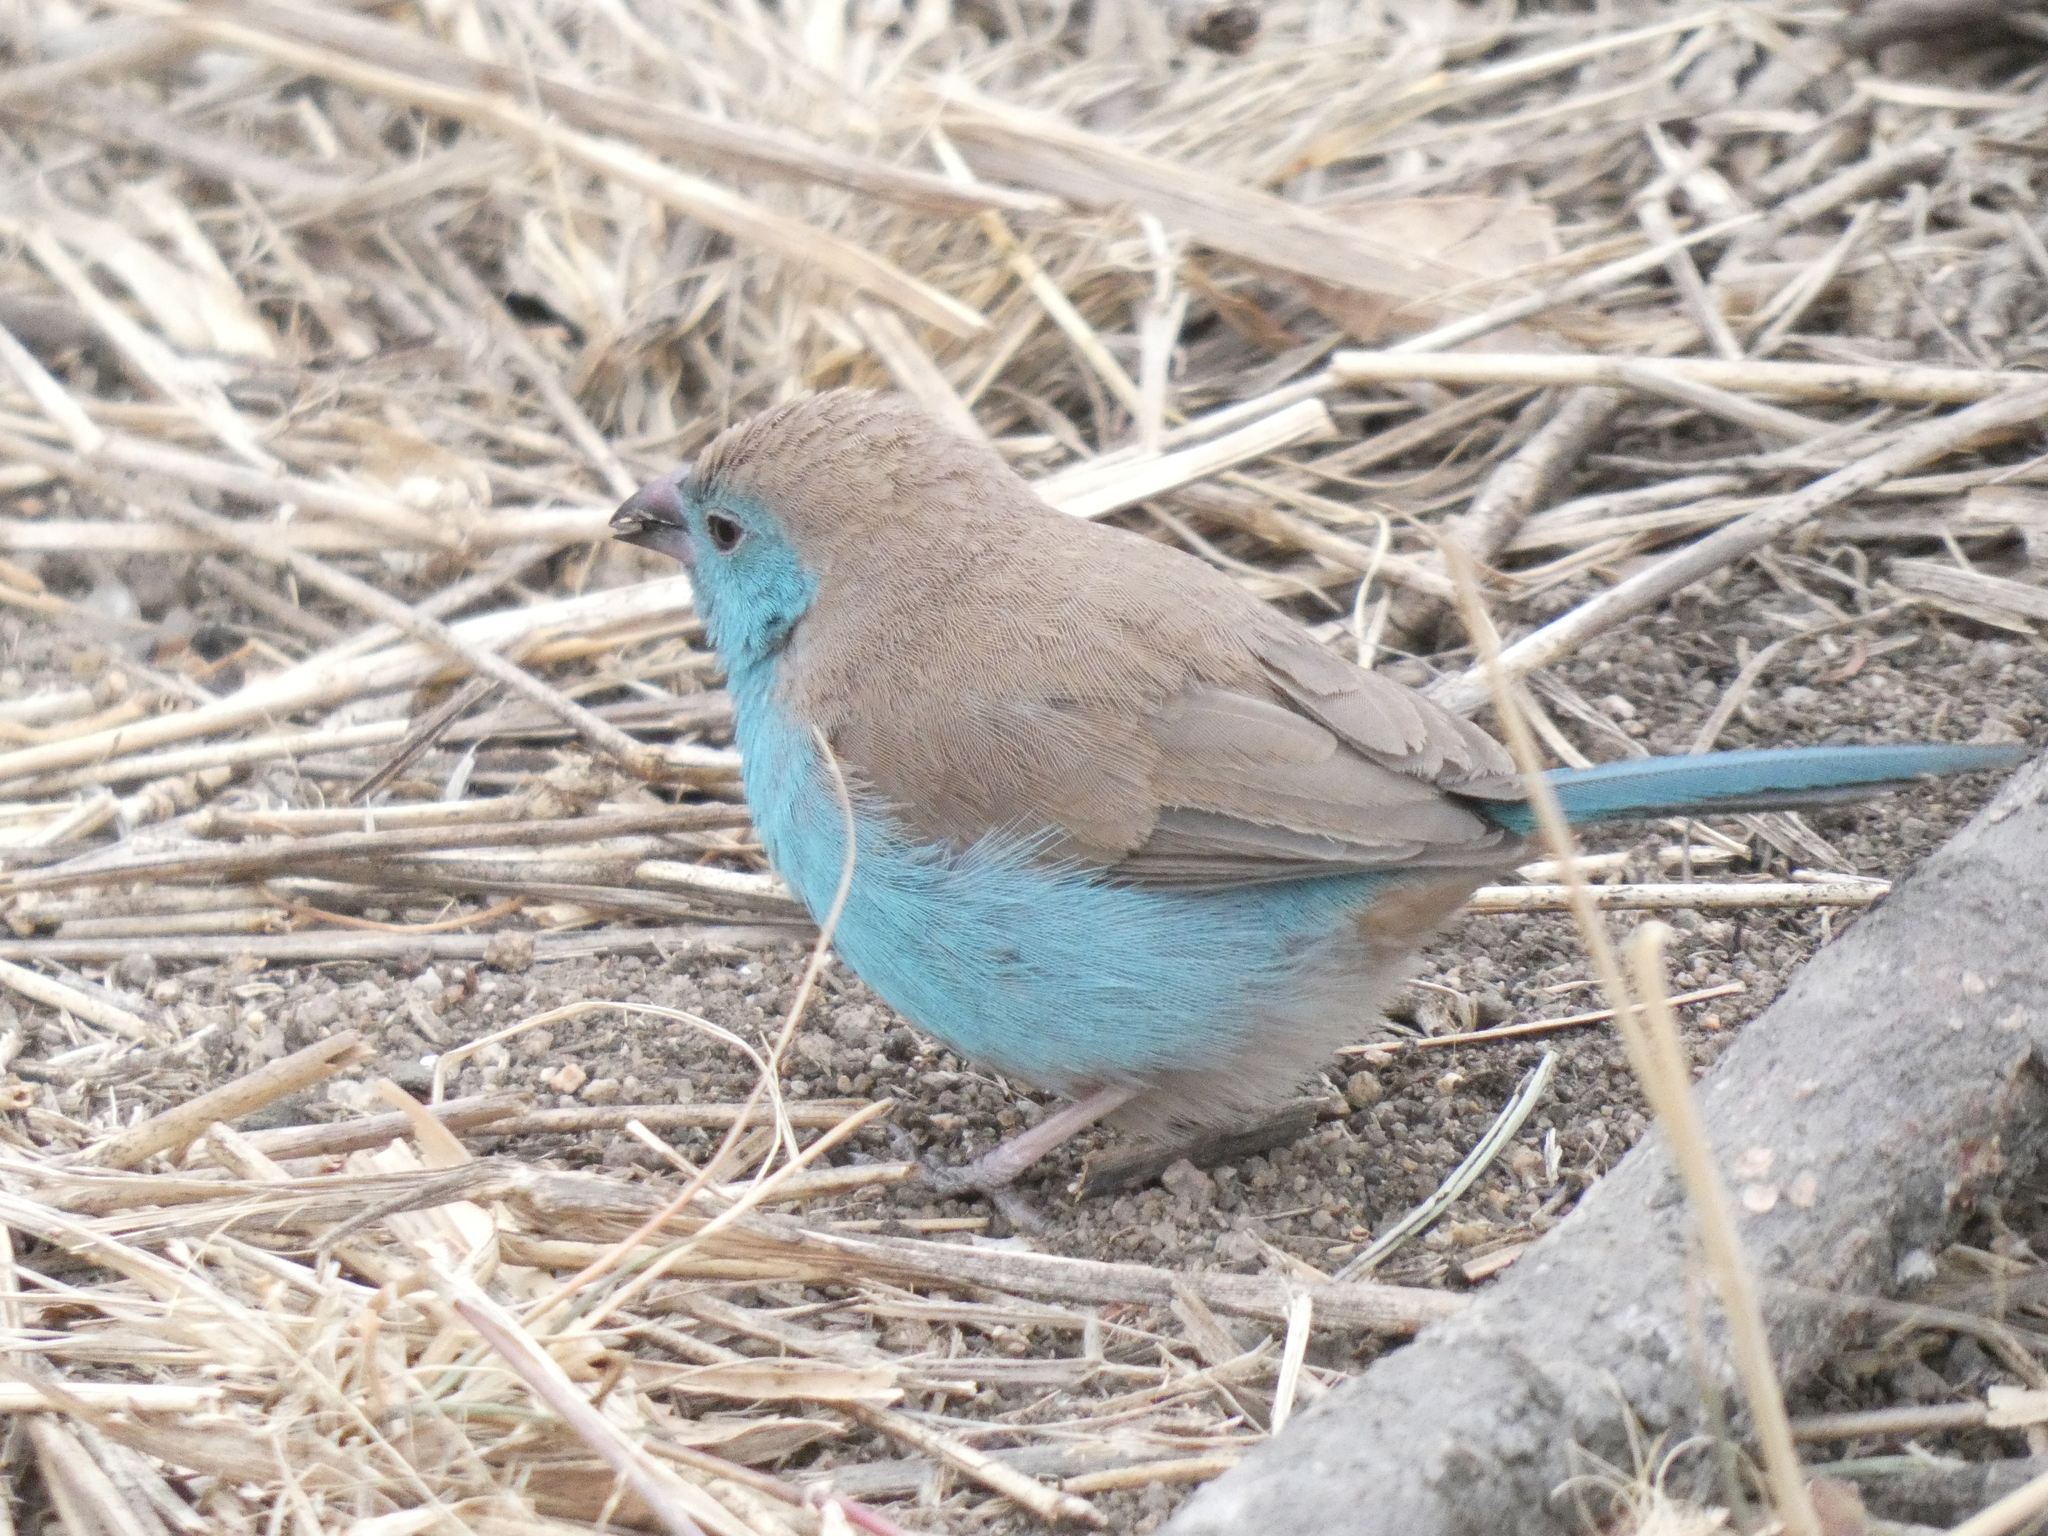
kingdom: Animalia
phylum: Chordata
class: Aves
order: Passeriformes
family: Estrildidae
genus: Uraeginthus
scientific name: Uraeginthus angolensis
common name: Blue waxbill
